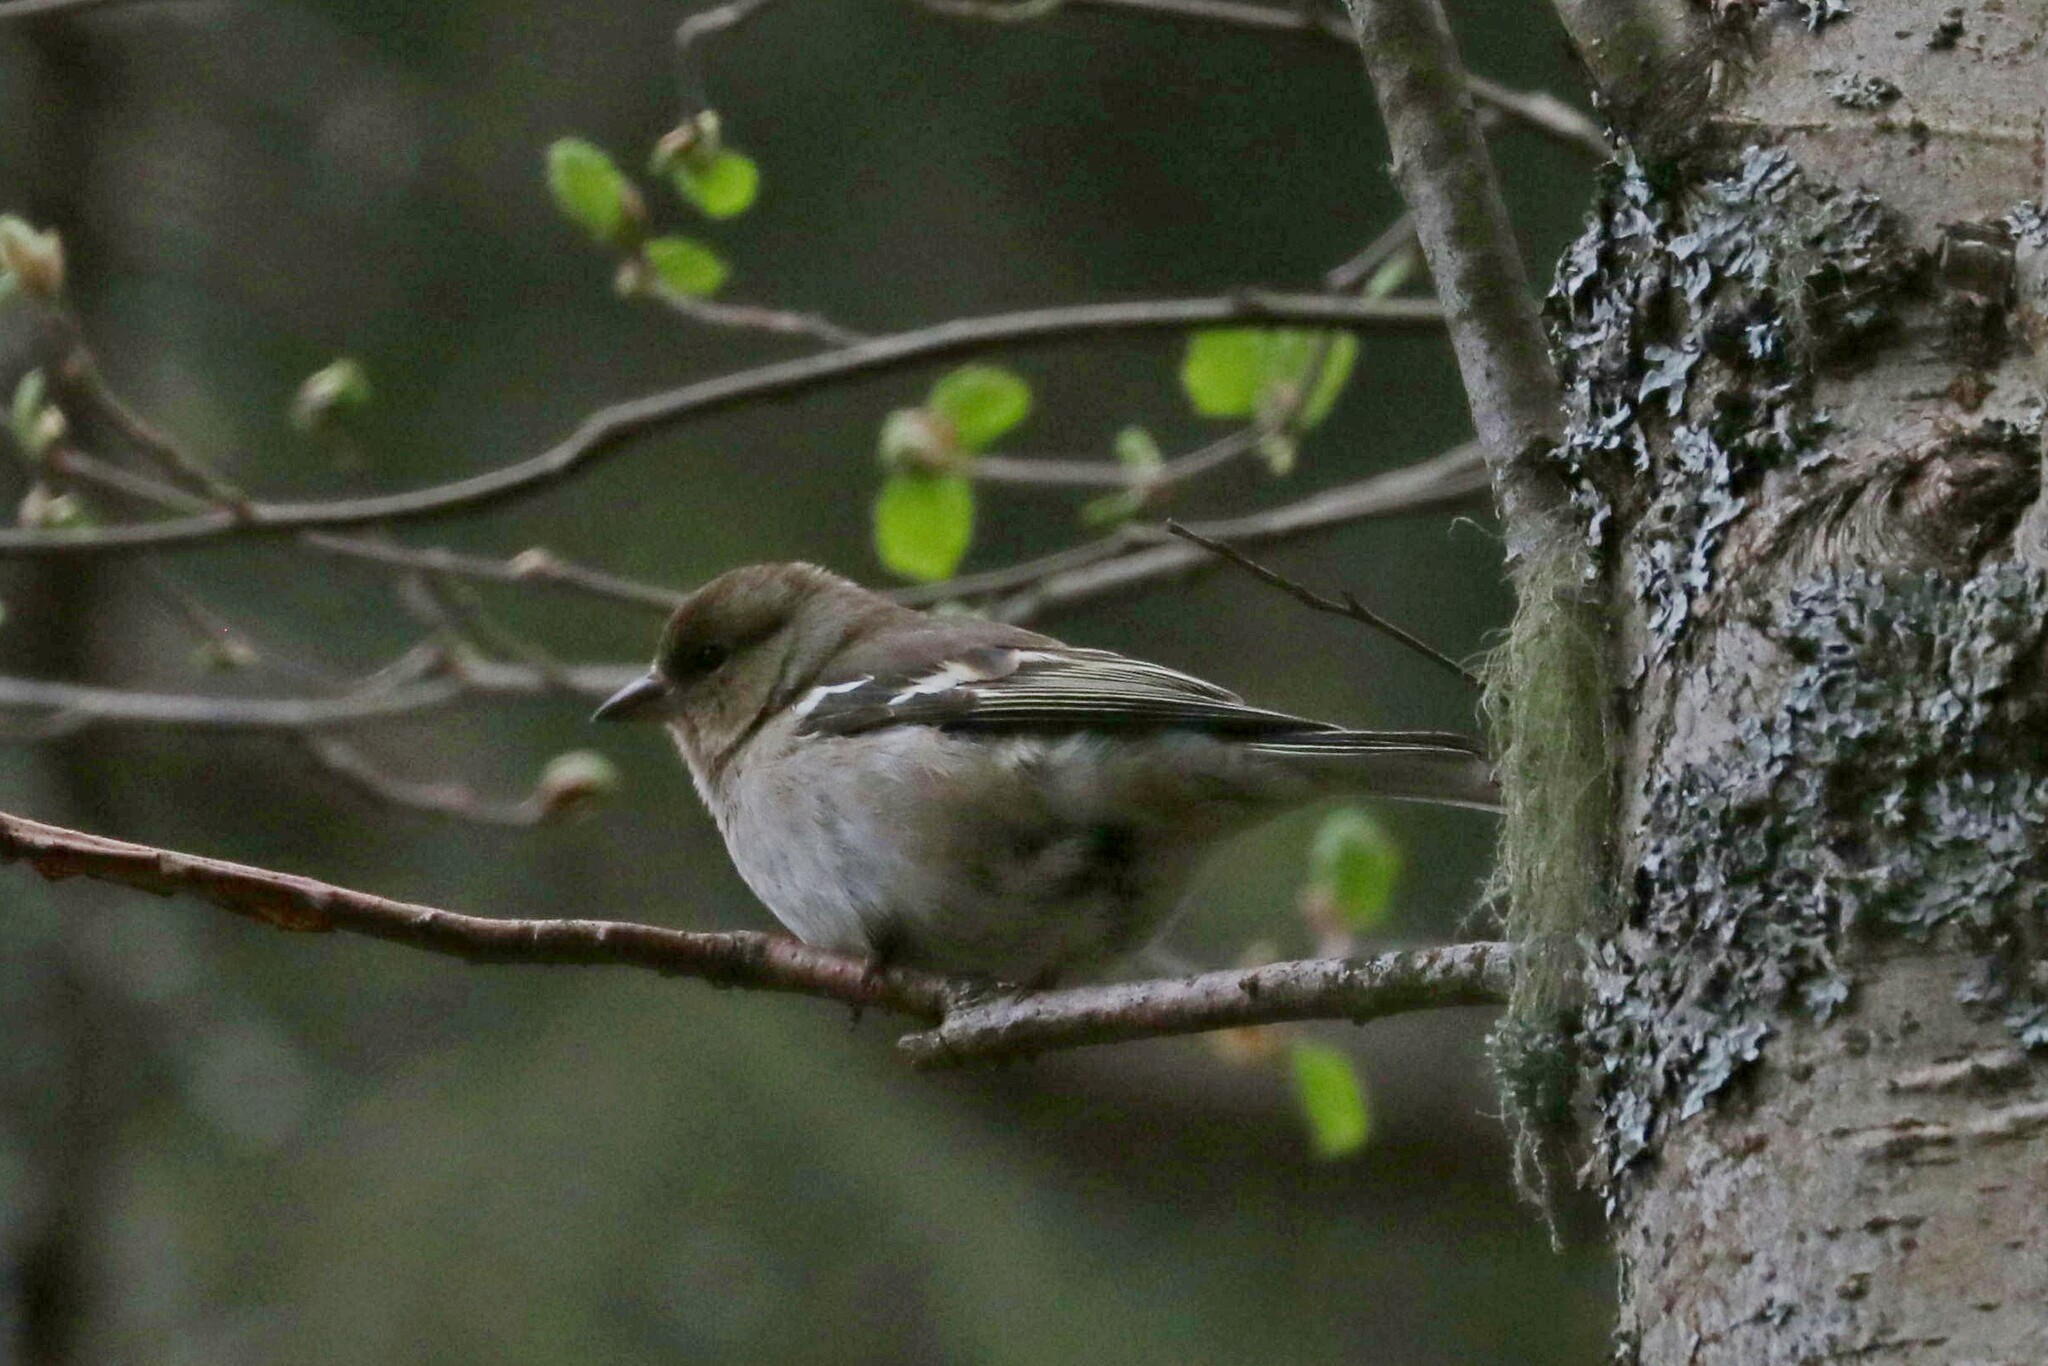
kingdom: Animalia
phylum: Chordata
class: Aves
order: Passeriformes
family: Fringillidae
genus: Fringilla
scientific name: Fringilla coelebs
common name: Common chaffinch
